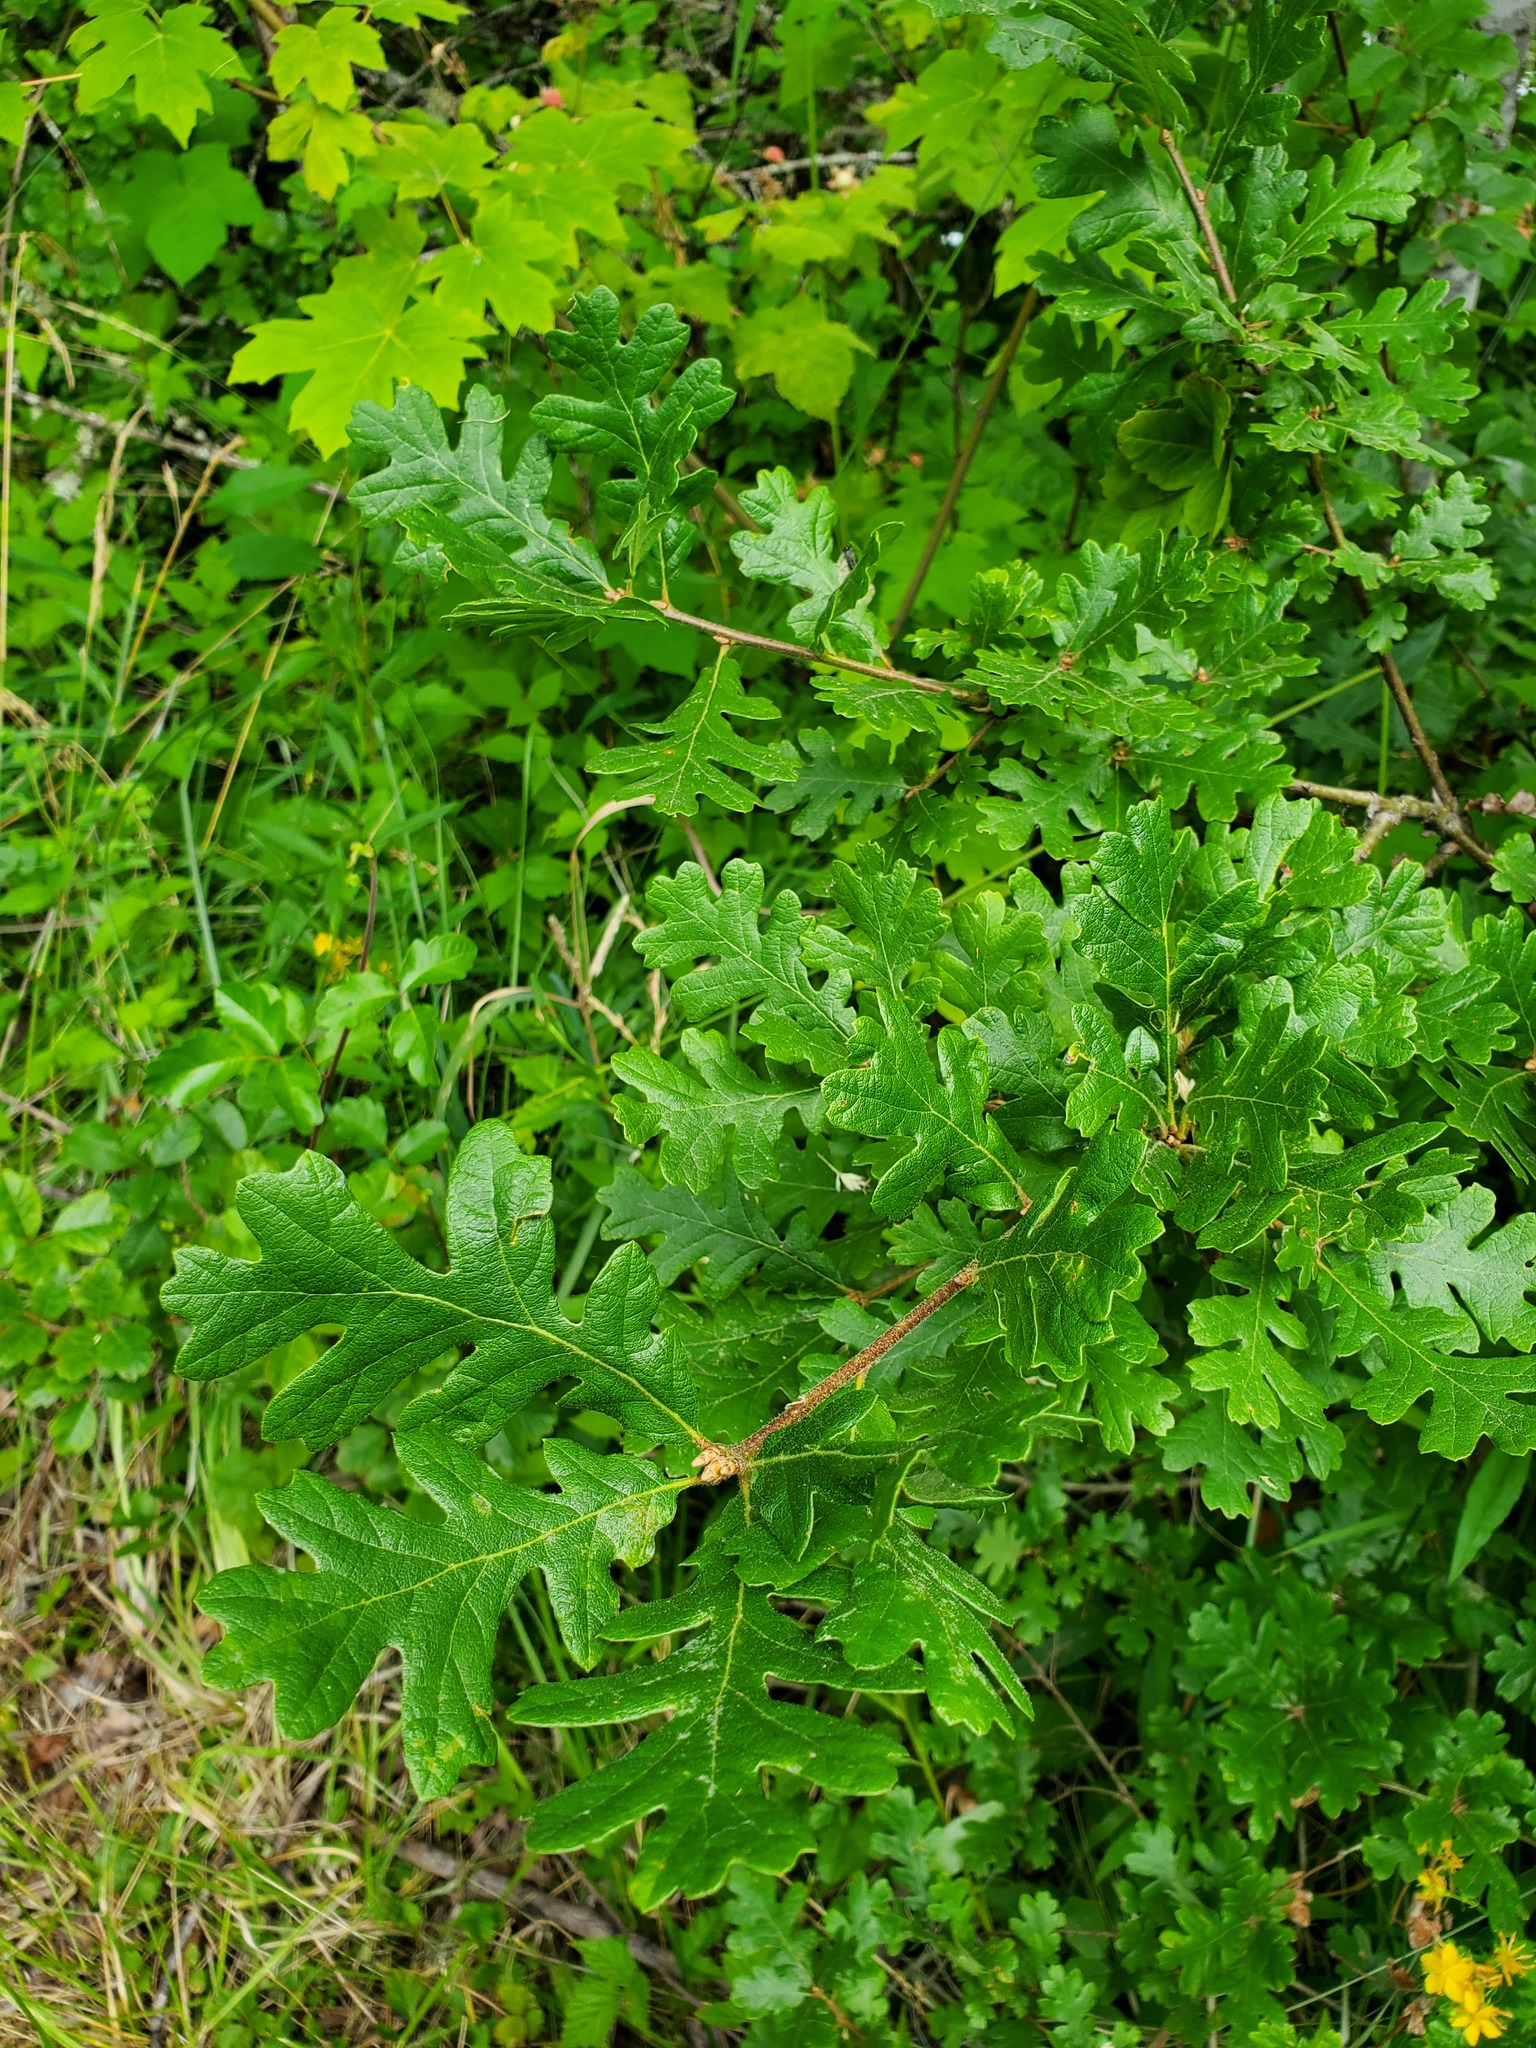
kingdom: Plantae
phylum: Tracheophyta
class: Magnoliopsida
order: Fagales
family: Fagaceae
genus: Quercus
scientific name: Quercus garryana
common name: Garry oak
